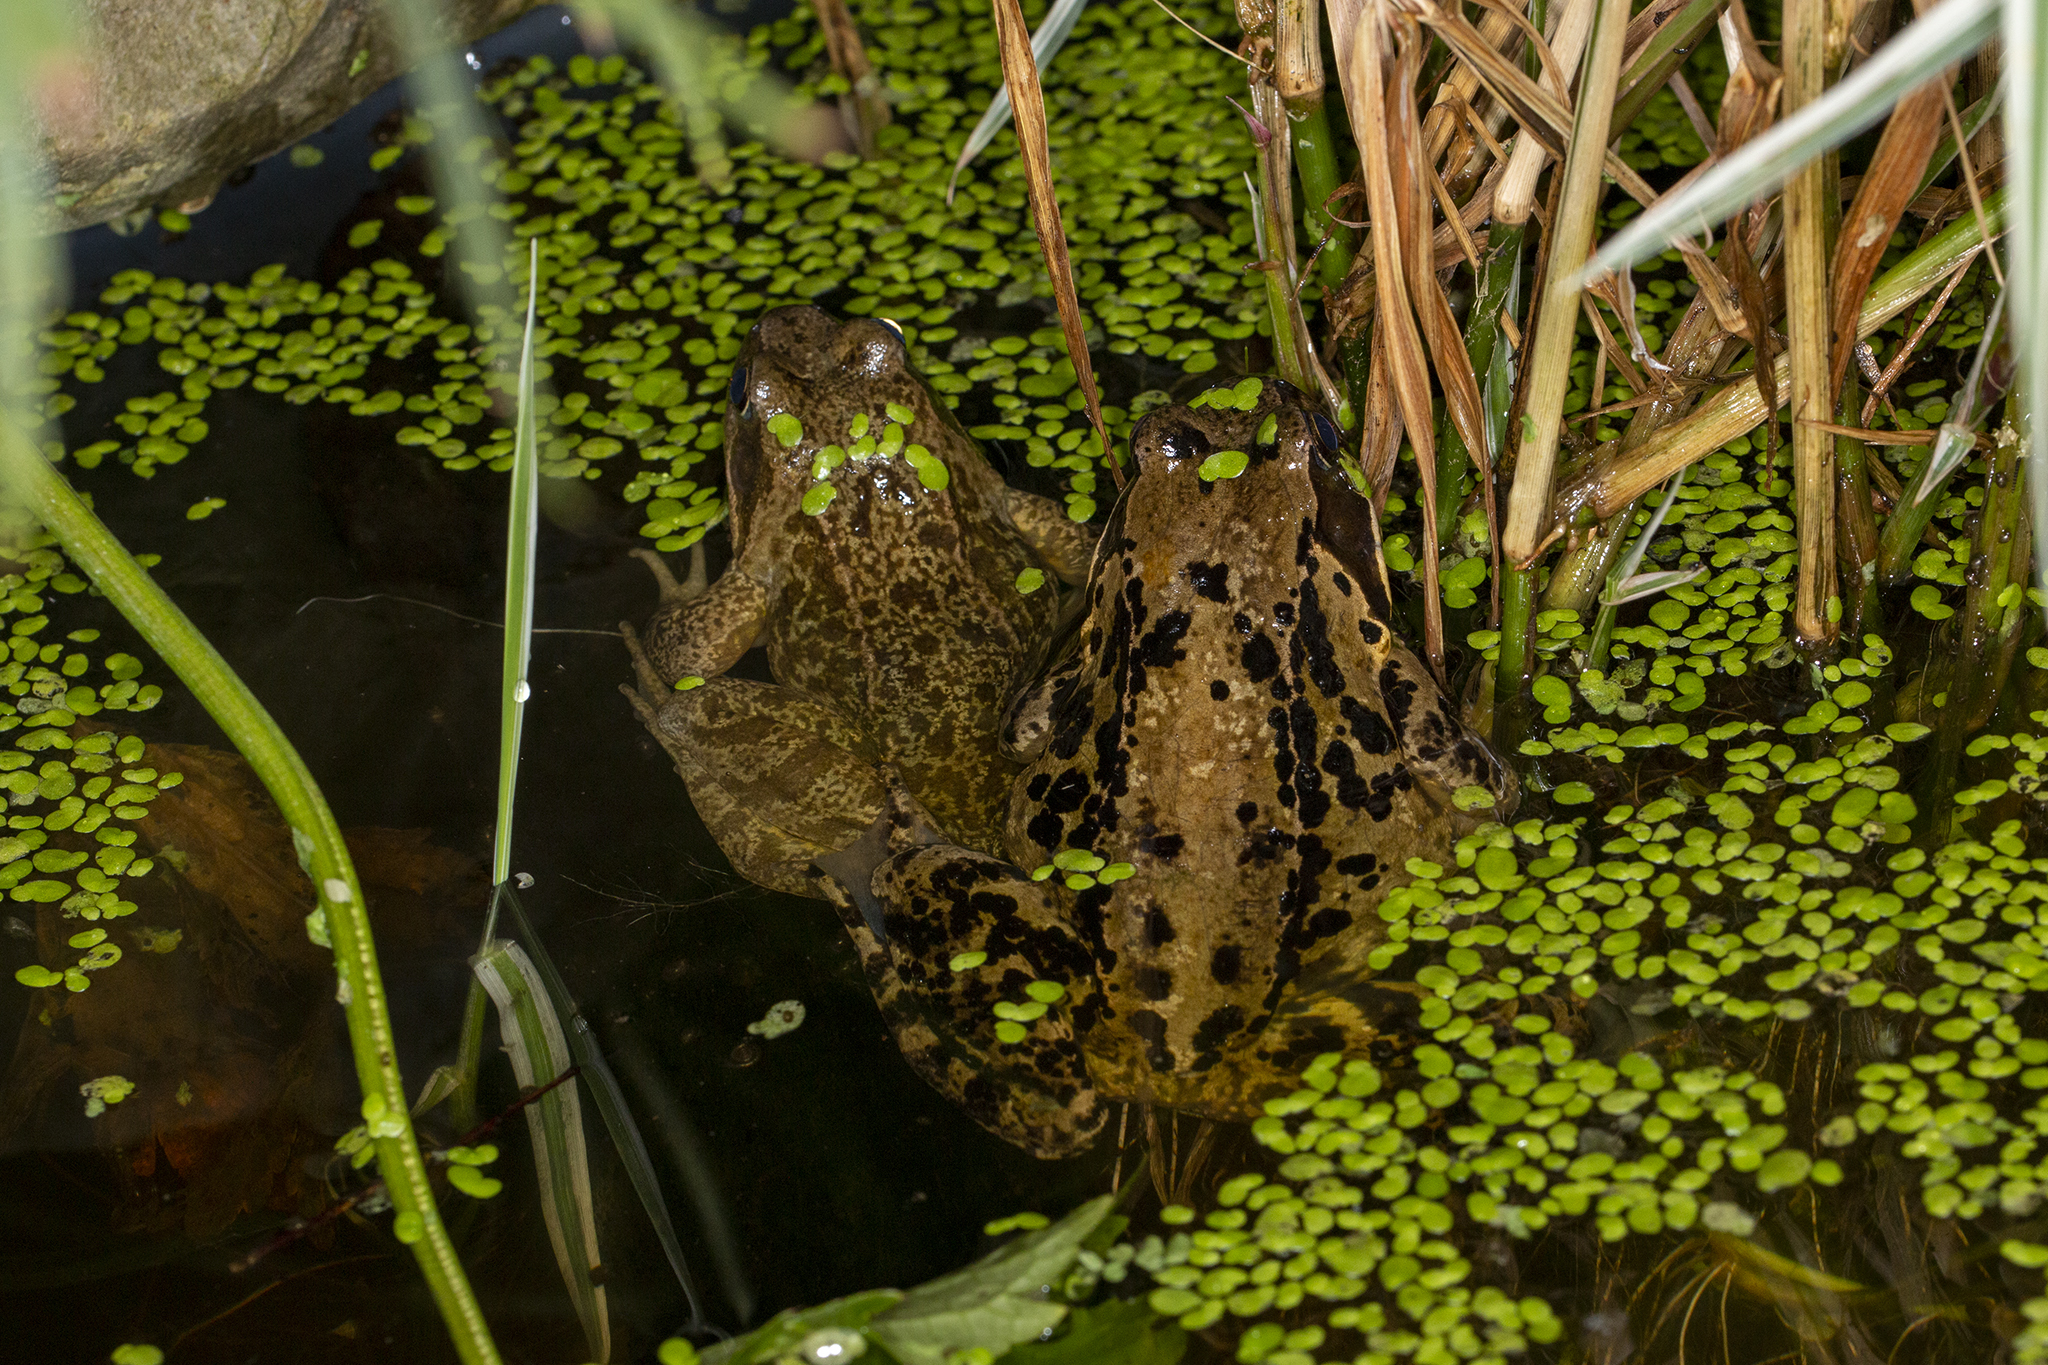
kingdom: Animalia
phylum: Chordata
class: Amphibia
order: Anura
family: Ranidae
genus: Rana
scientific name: Rana temporaria
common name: Common frog
